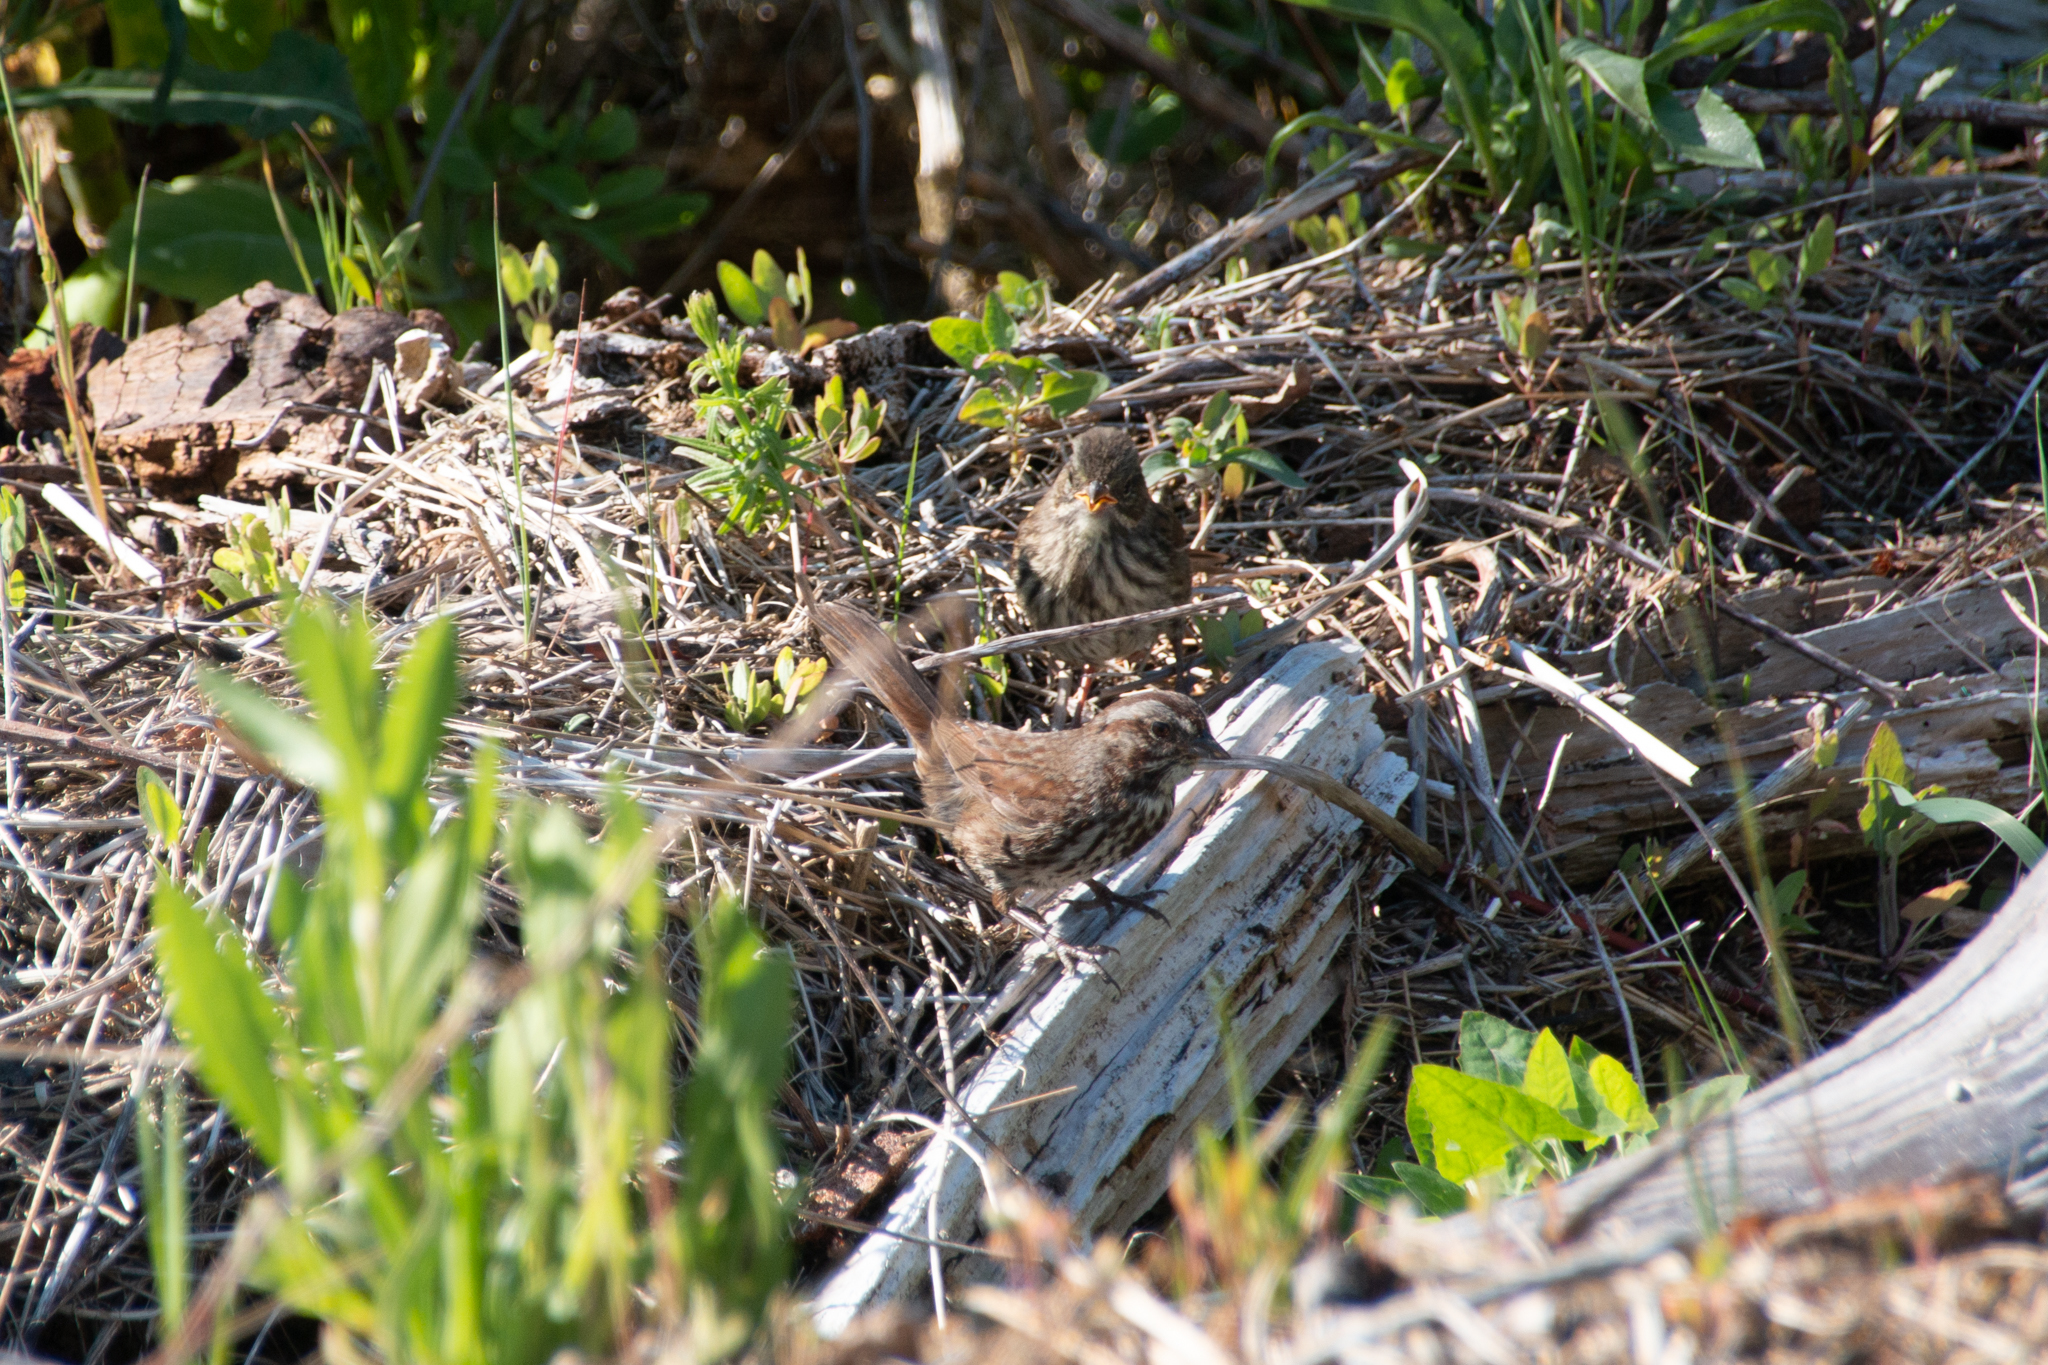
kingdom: Animalia
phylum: Chordata
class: Aves
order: Passeriformes
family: Passerellidae
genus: Melospiza
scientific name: Melospiza melodia
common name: Song sparrow
